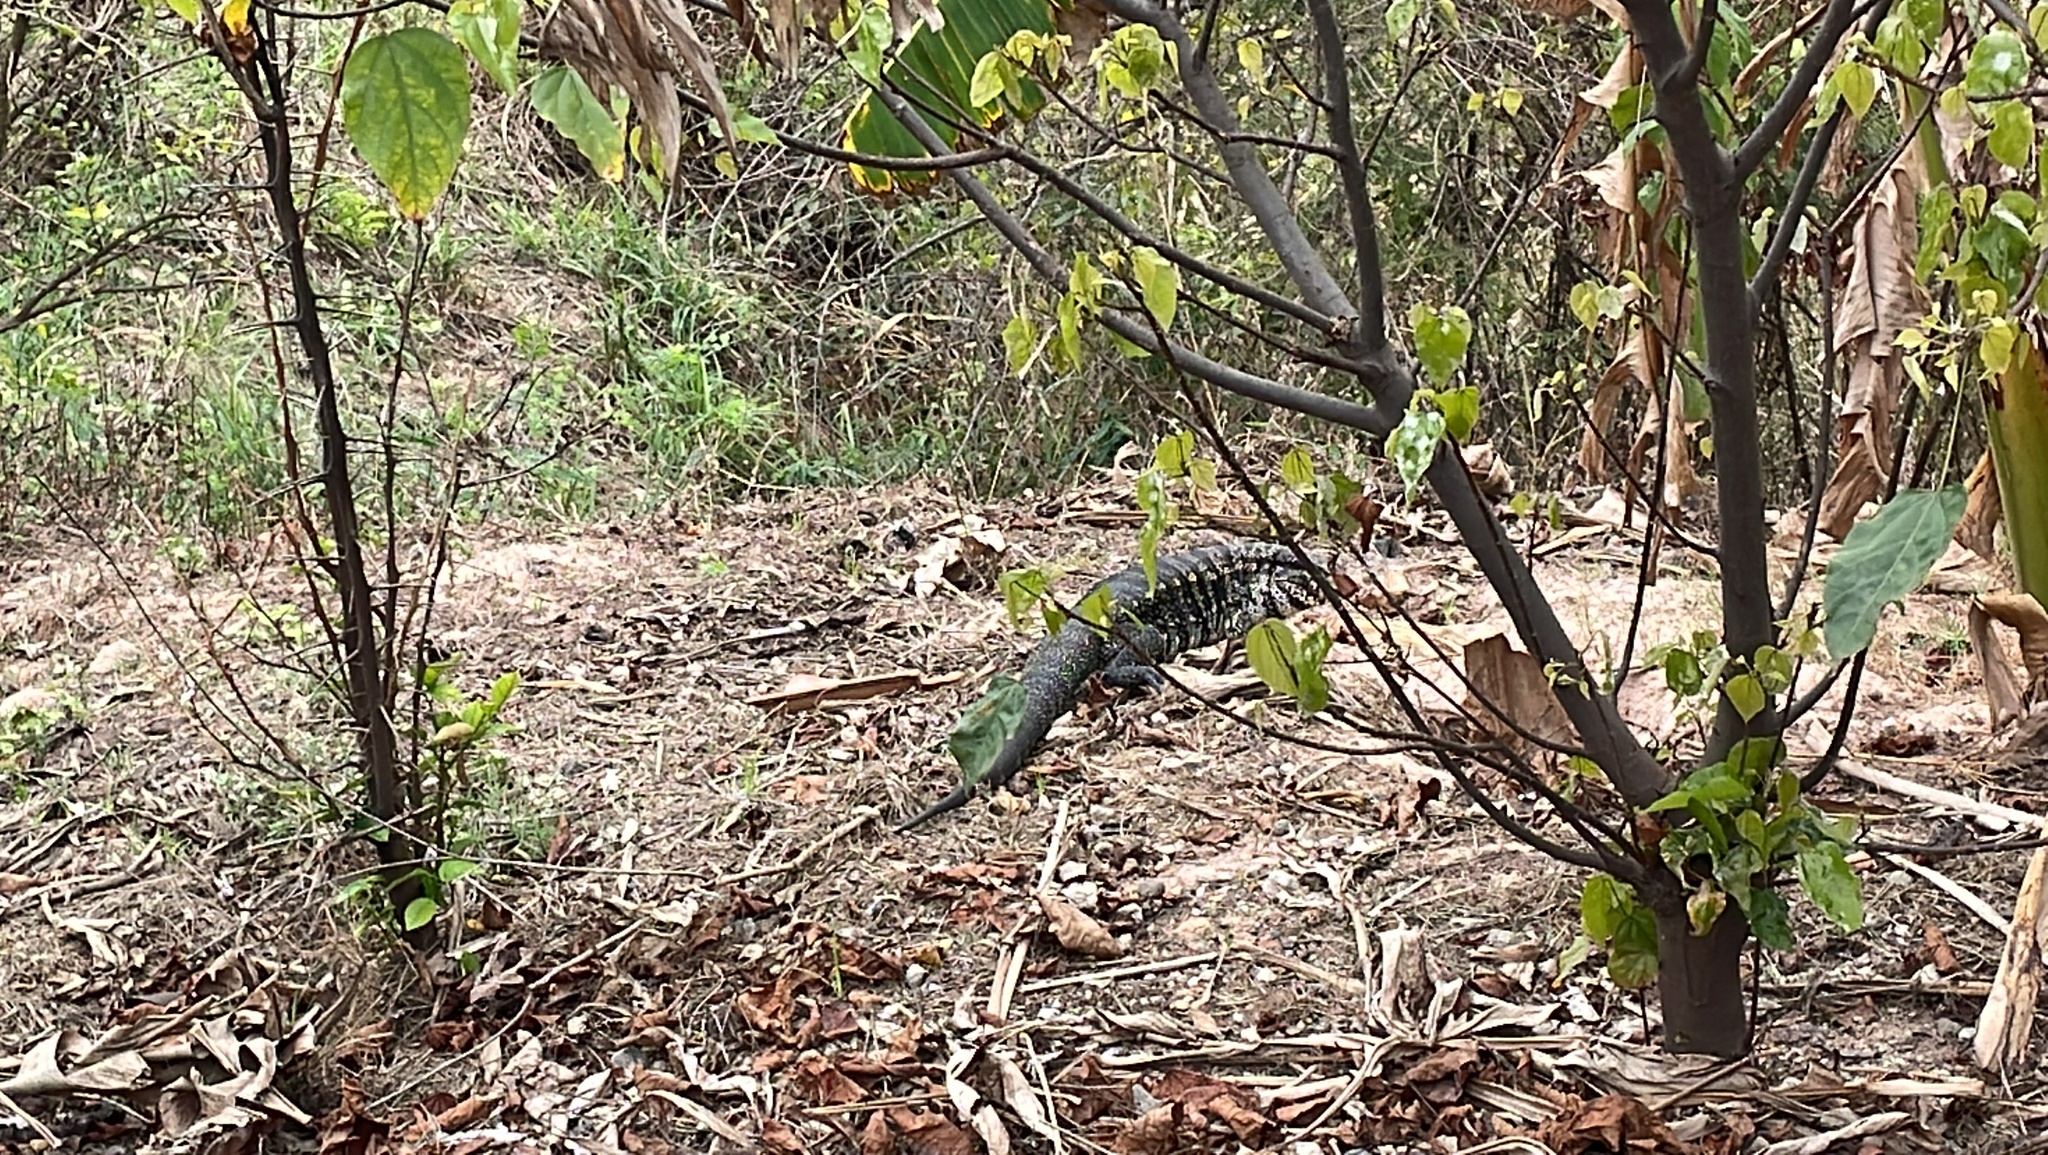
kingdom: Animalia
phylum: Chordata
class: Squamata
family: Teiidae
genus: Salvator
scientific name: Salvator merianae
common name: Argentine black and white tegu
